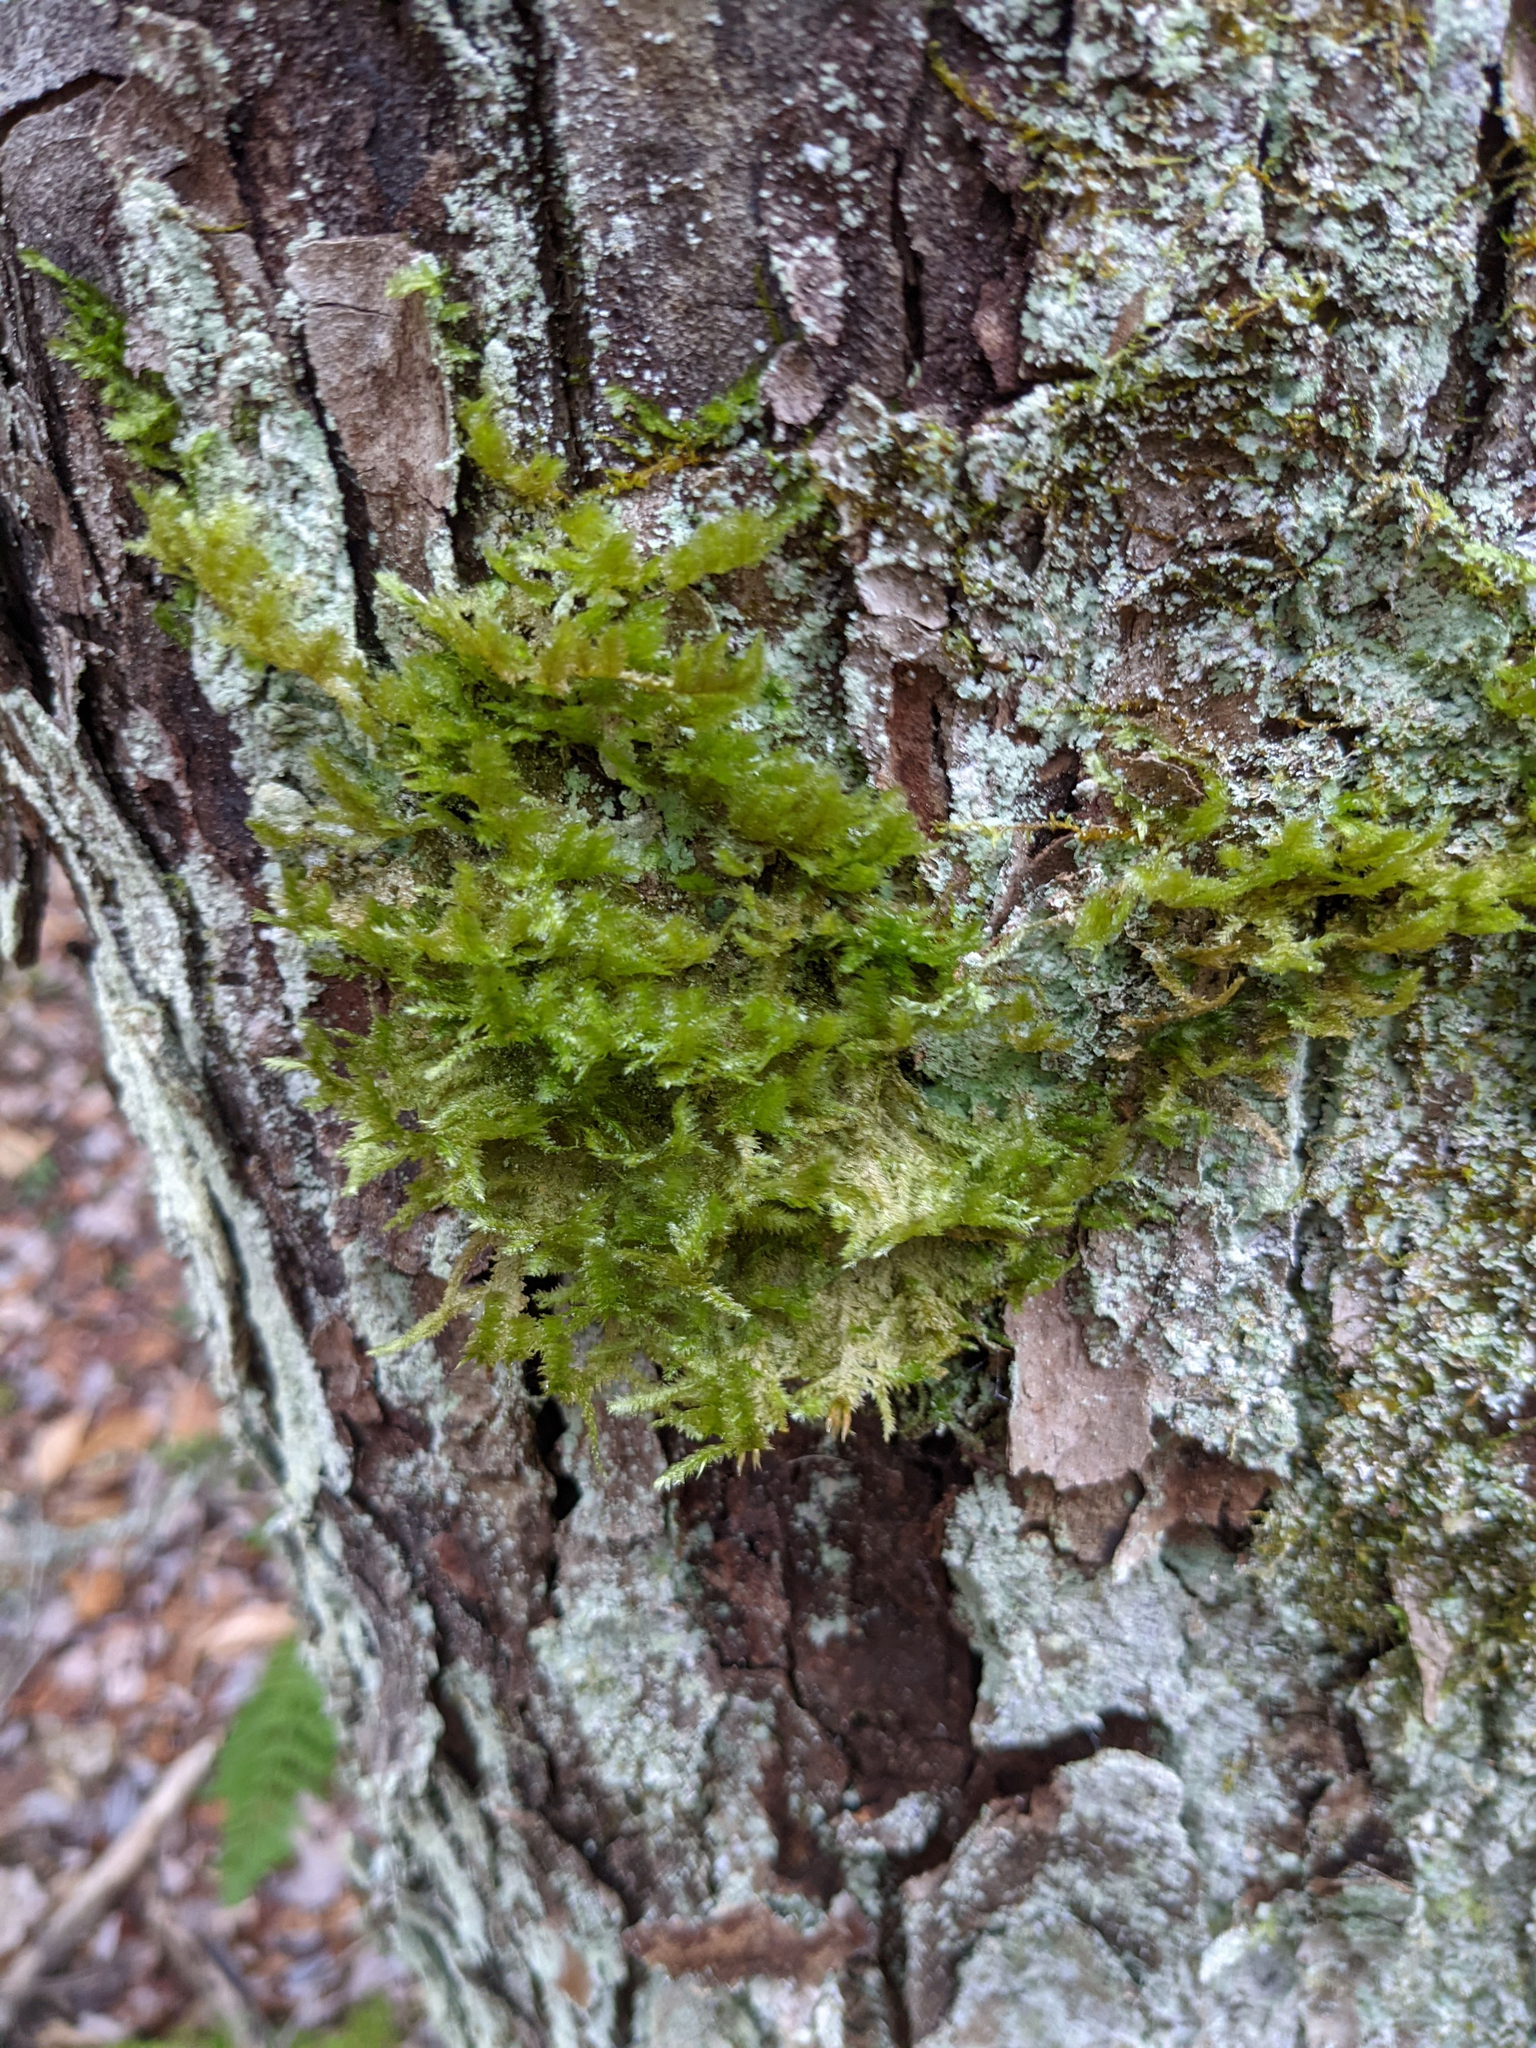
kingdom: Plantae
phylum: Bryophyta
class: Bryopsida
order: Hypnales
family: Neckeraceae
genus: Neckera
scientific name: Neckera pennata
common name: Feathery neckera
